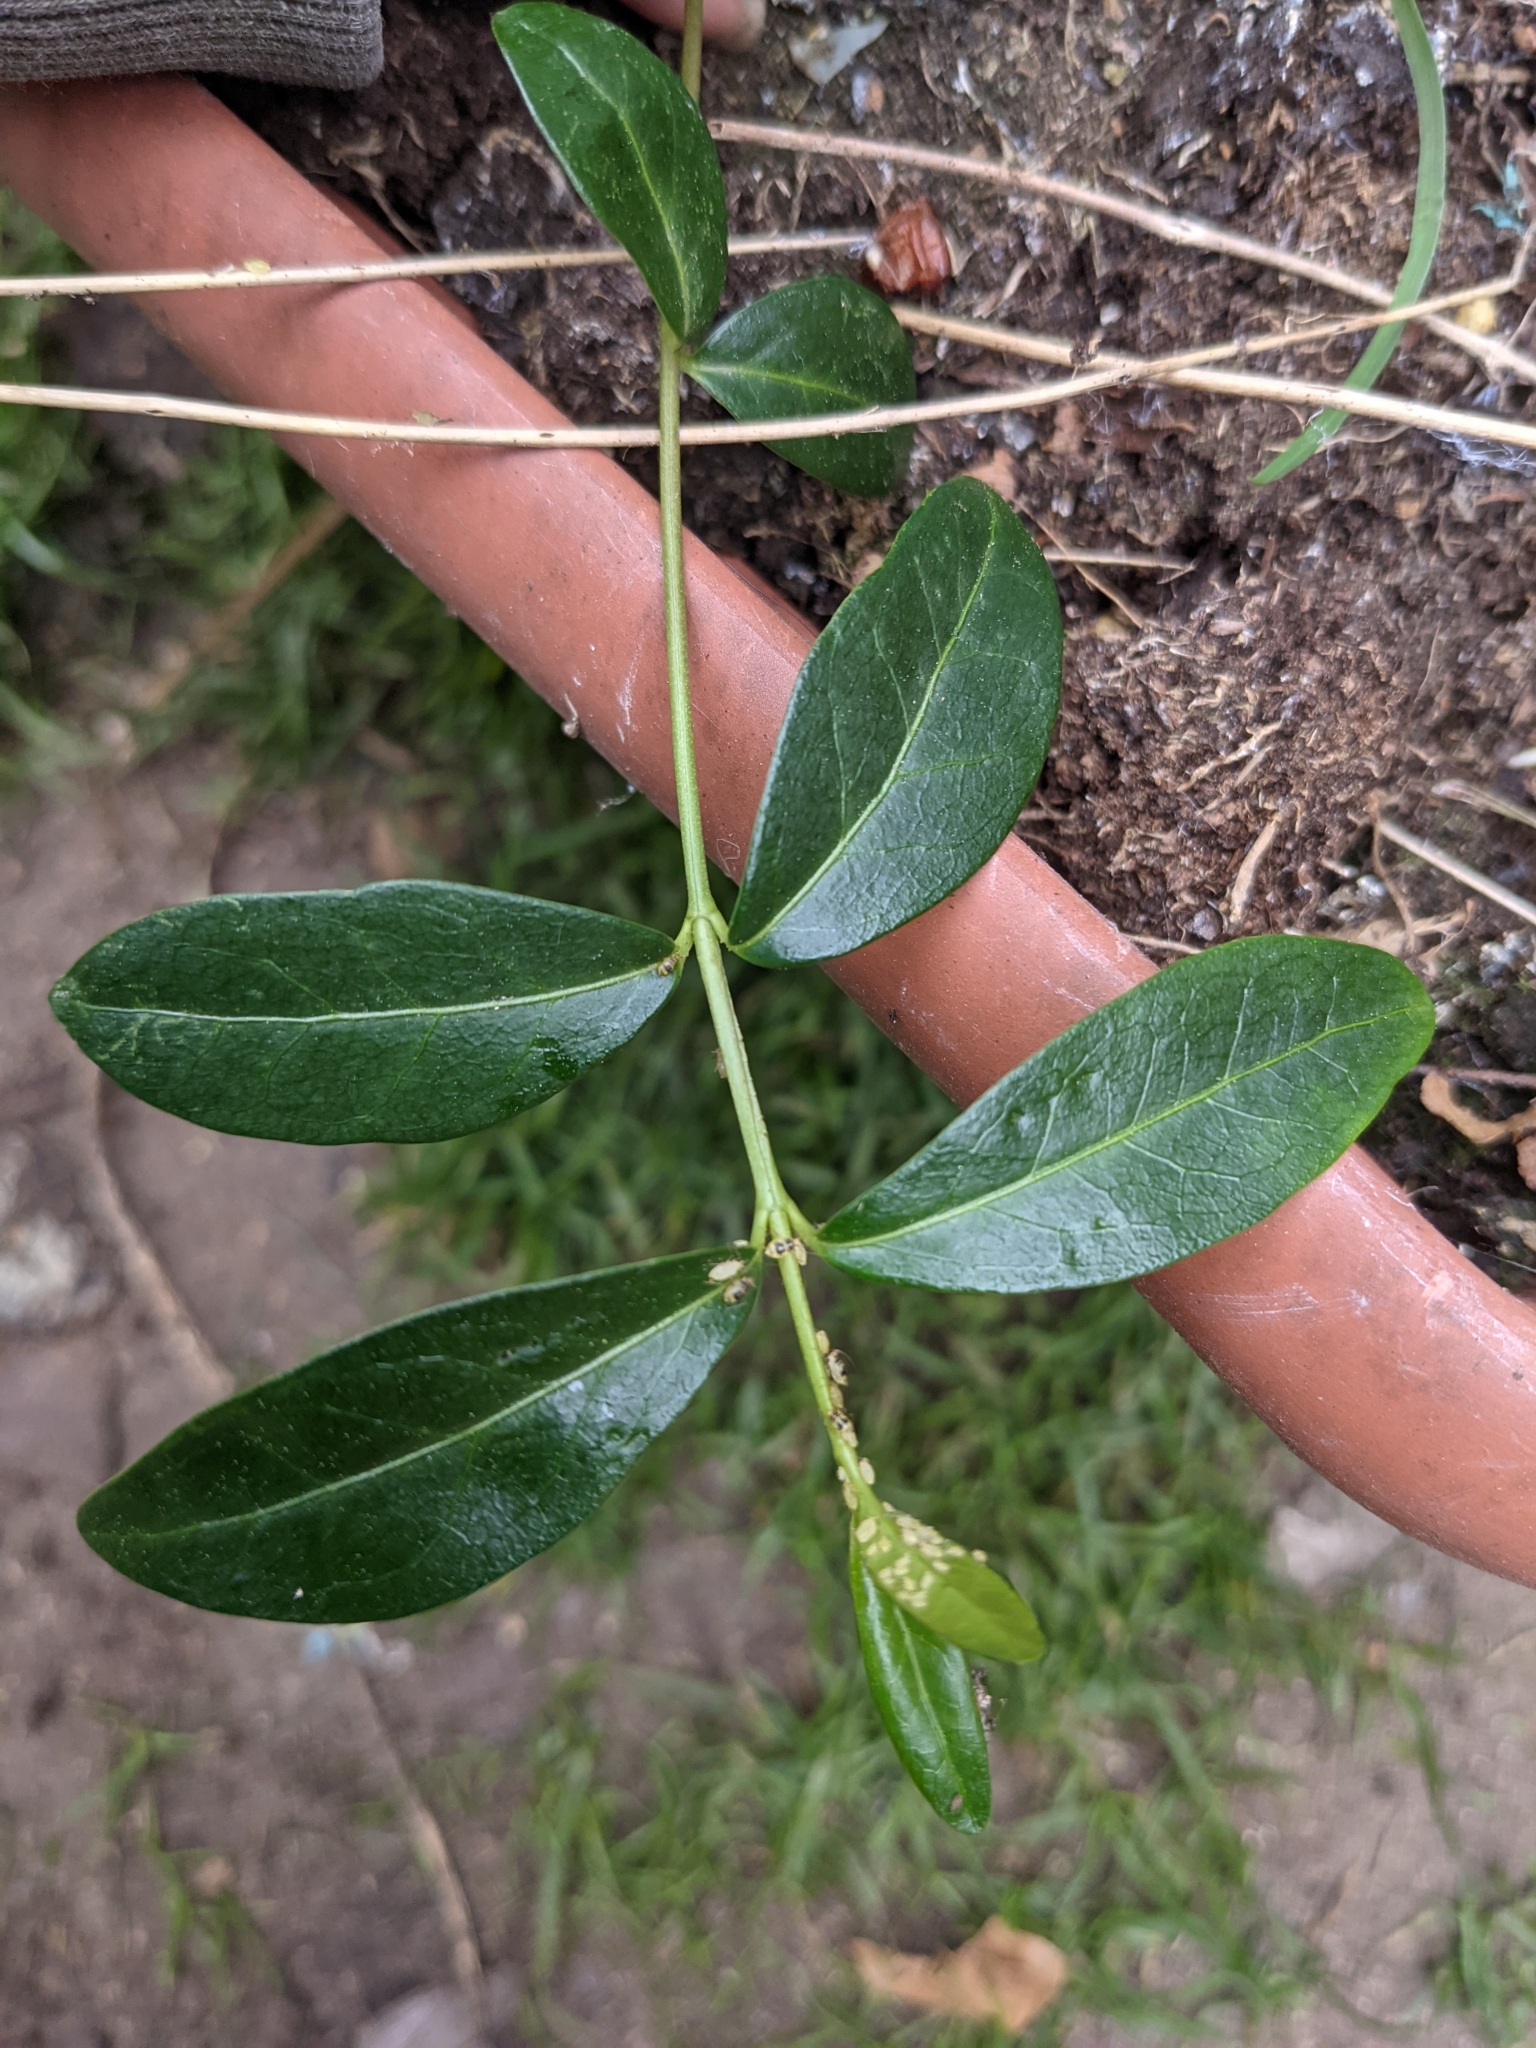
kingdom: Plantae
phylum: Tracheophyta
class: Magnoliopsida
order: Gentianales
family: Apocynaceae
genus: Vinca
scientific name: Vinca minor
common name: Lesser periwinkle
